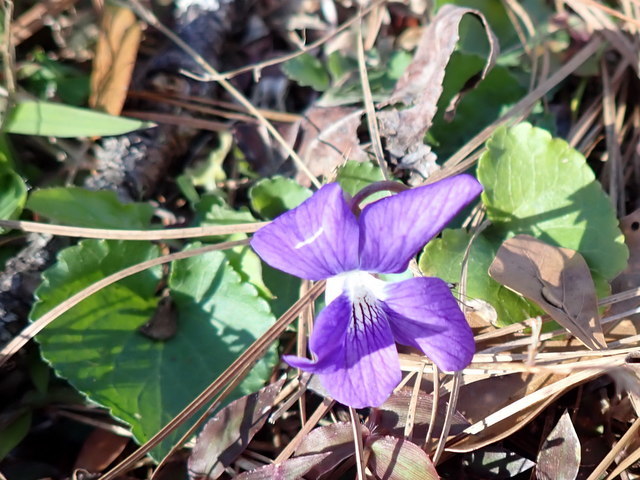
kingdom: Plantae
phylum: Tracheophyta
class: Magnoliopsida
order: Malpighiales
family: Violaceae
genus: Viola
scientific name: Viola sororia
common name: Dooryard violet
